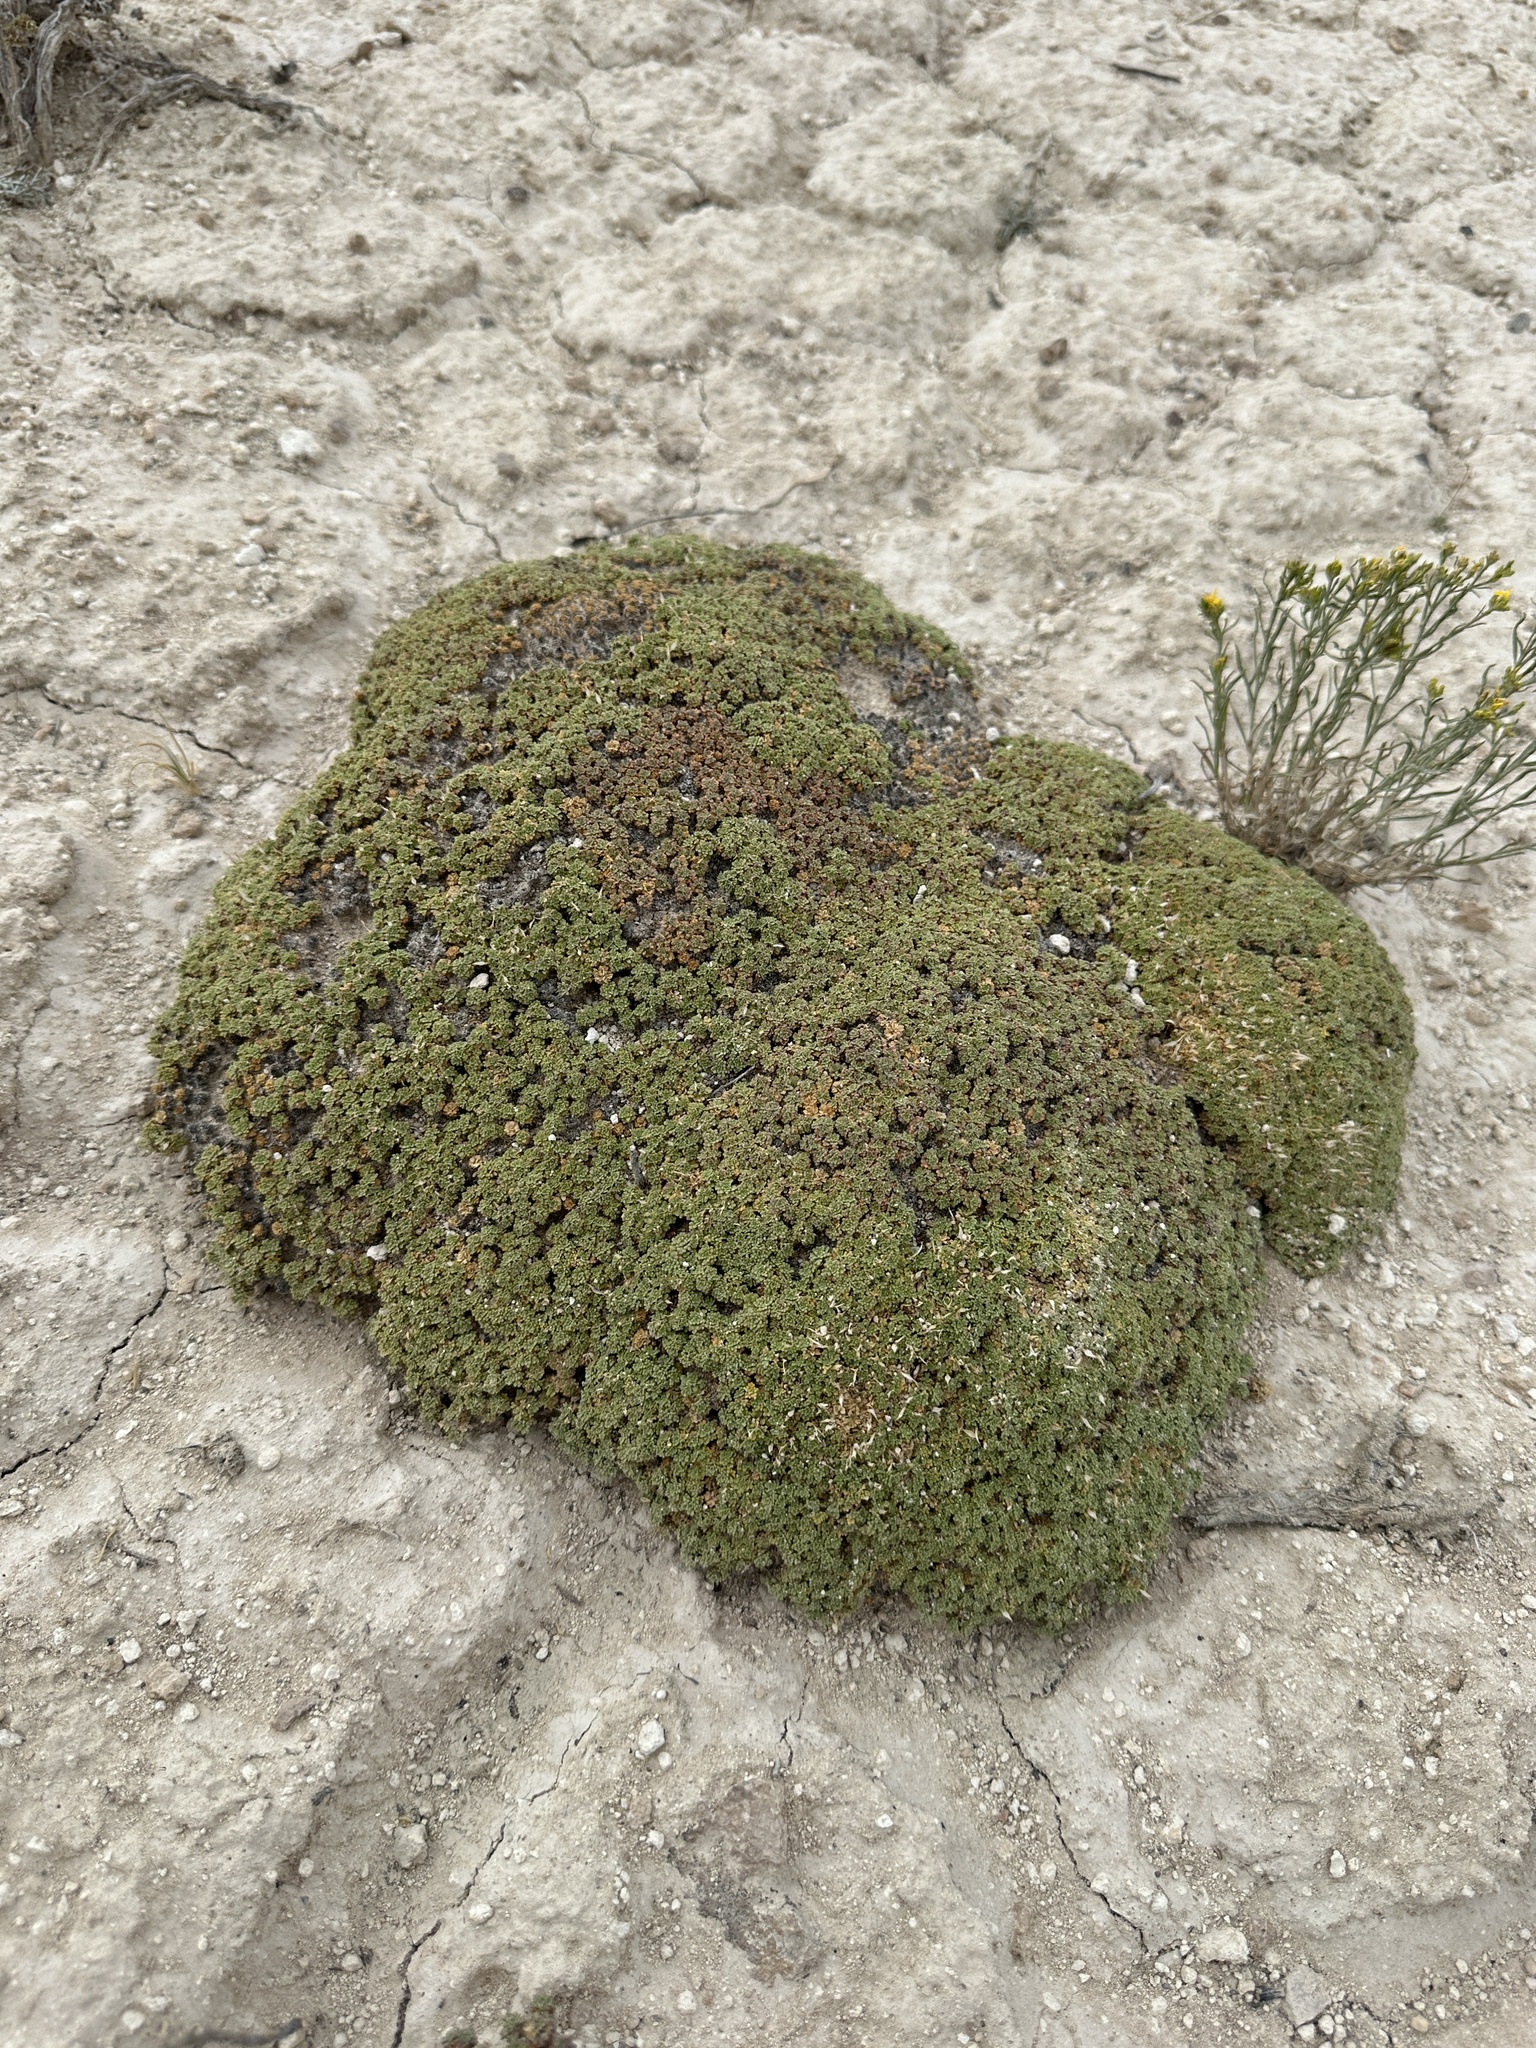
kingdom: Plantae
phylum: Tracheophyta
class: Magnoliopsida
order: Brassicales
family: Brassicaceae
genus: Lepidium
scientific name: Lepidium nanum
